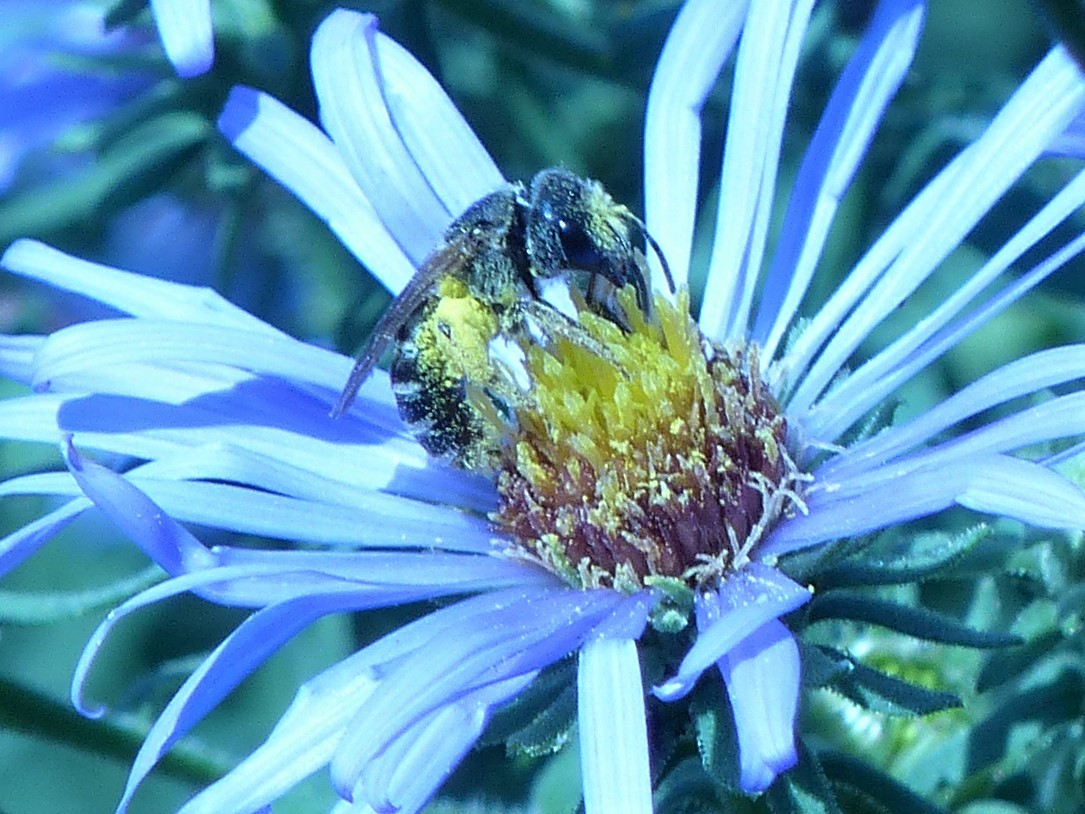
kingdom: Animalia
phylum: Arthropoda
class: Insecta
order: Hymenoptera
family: Halictidae
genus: Halictus
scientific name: Halictus ligatus
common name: Ligated furrow bee
